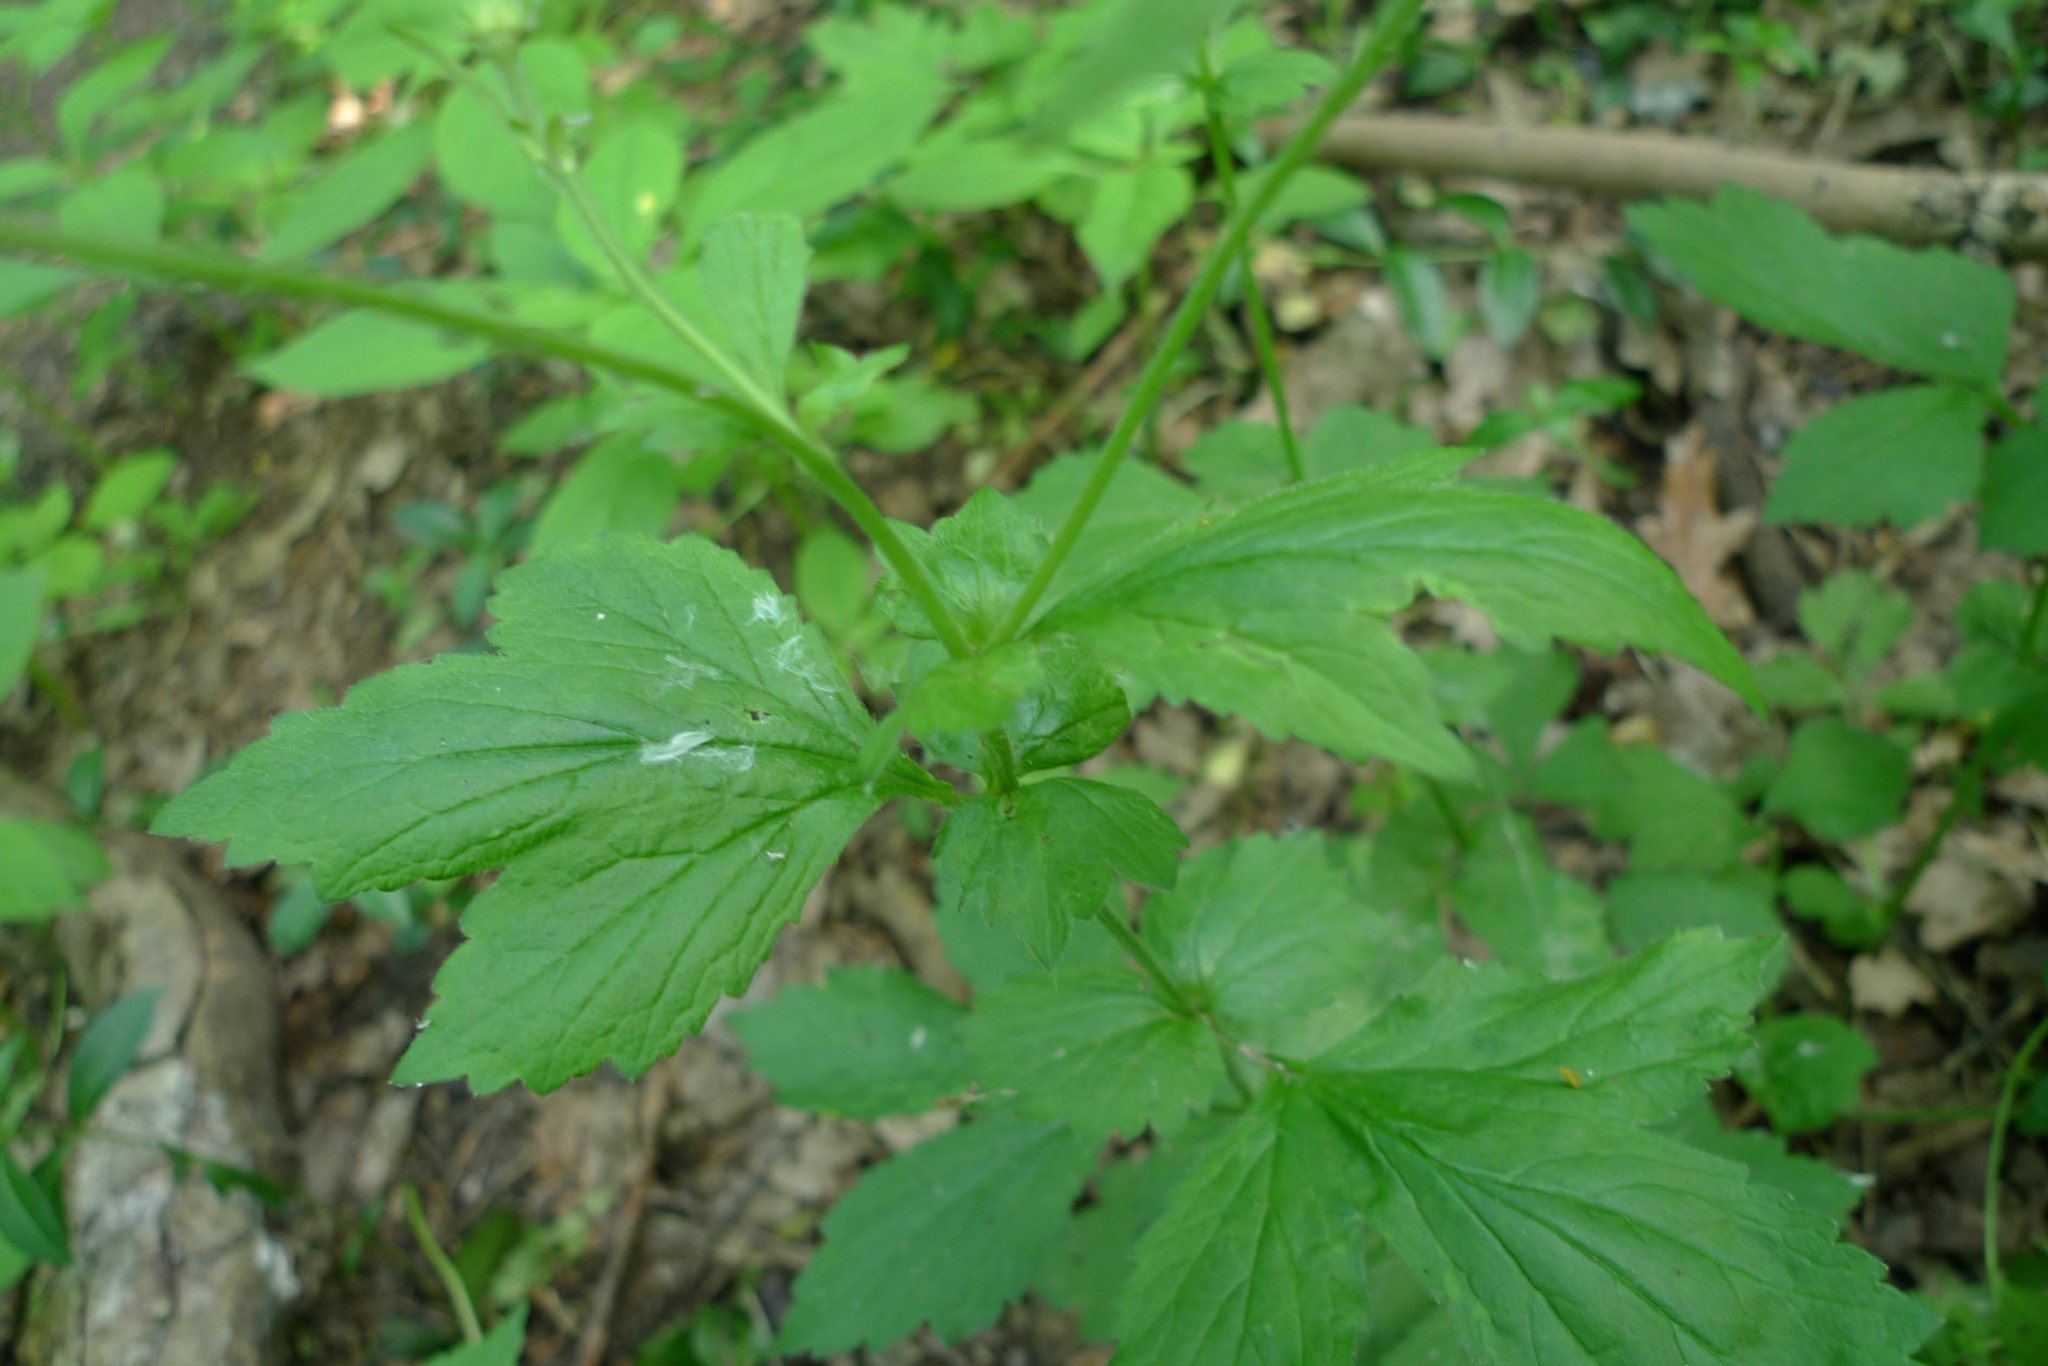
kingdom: Plantae
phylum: Tracheophyta
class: Magnoliopsida
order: Rosales
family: Rosaceae
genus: Geum
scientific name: Geum urbanum
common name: Wood avens
